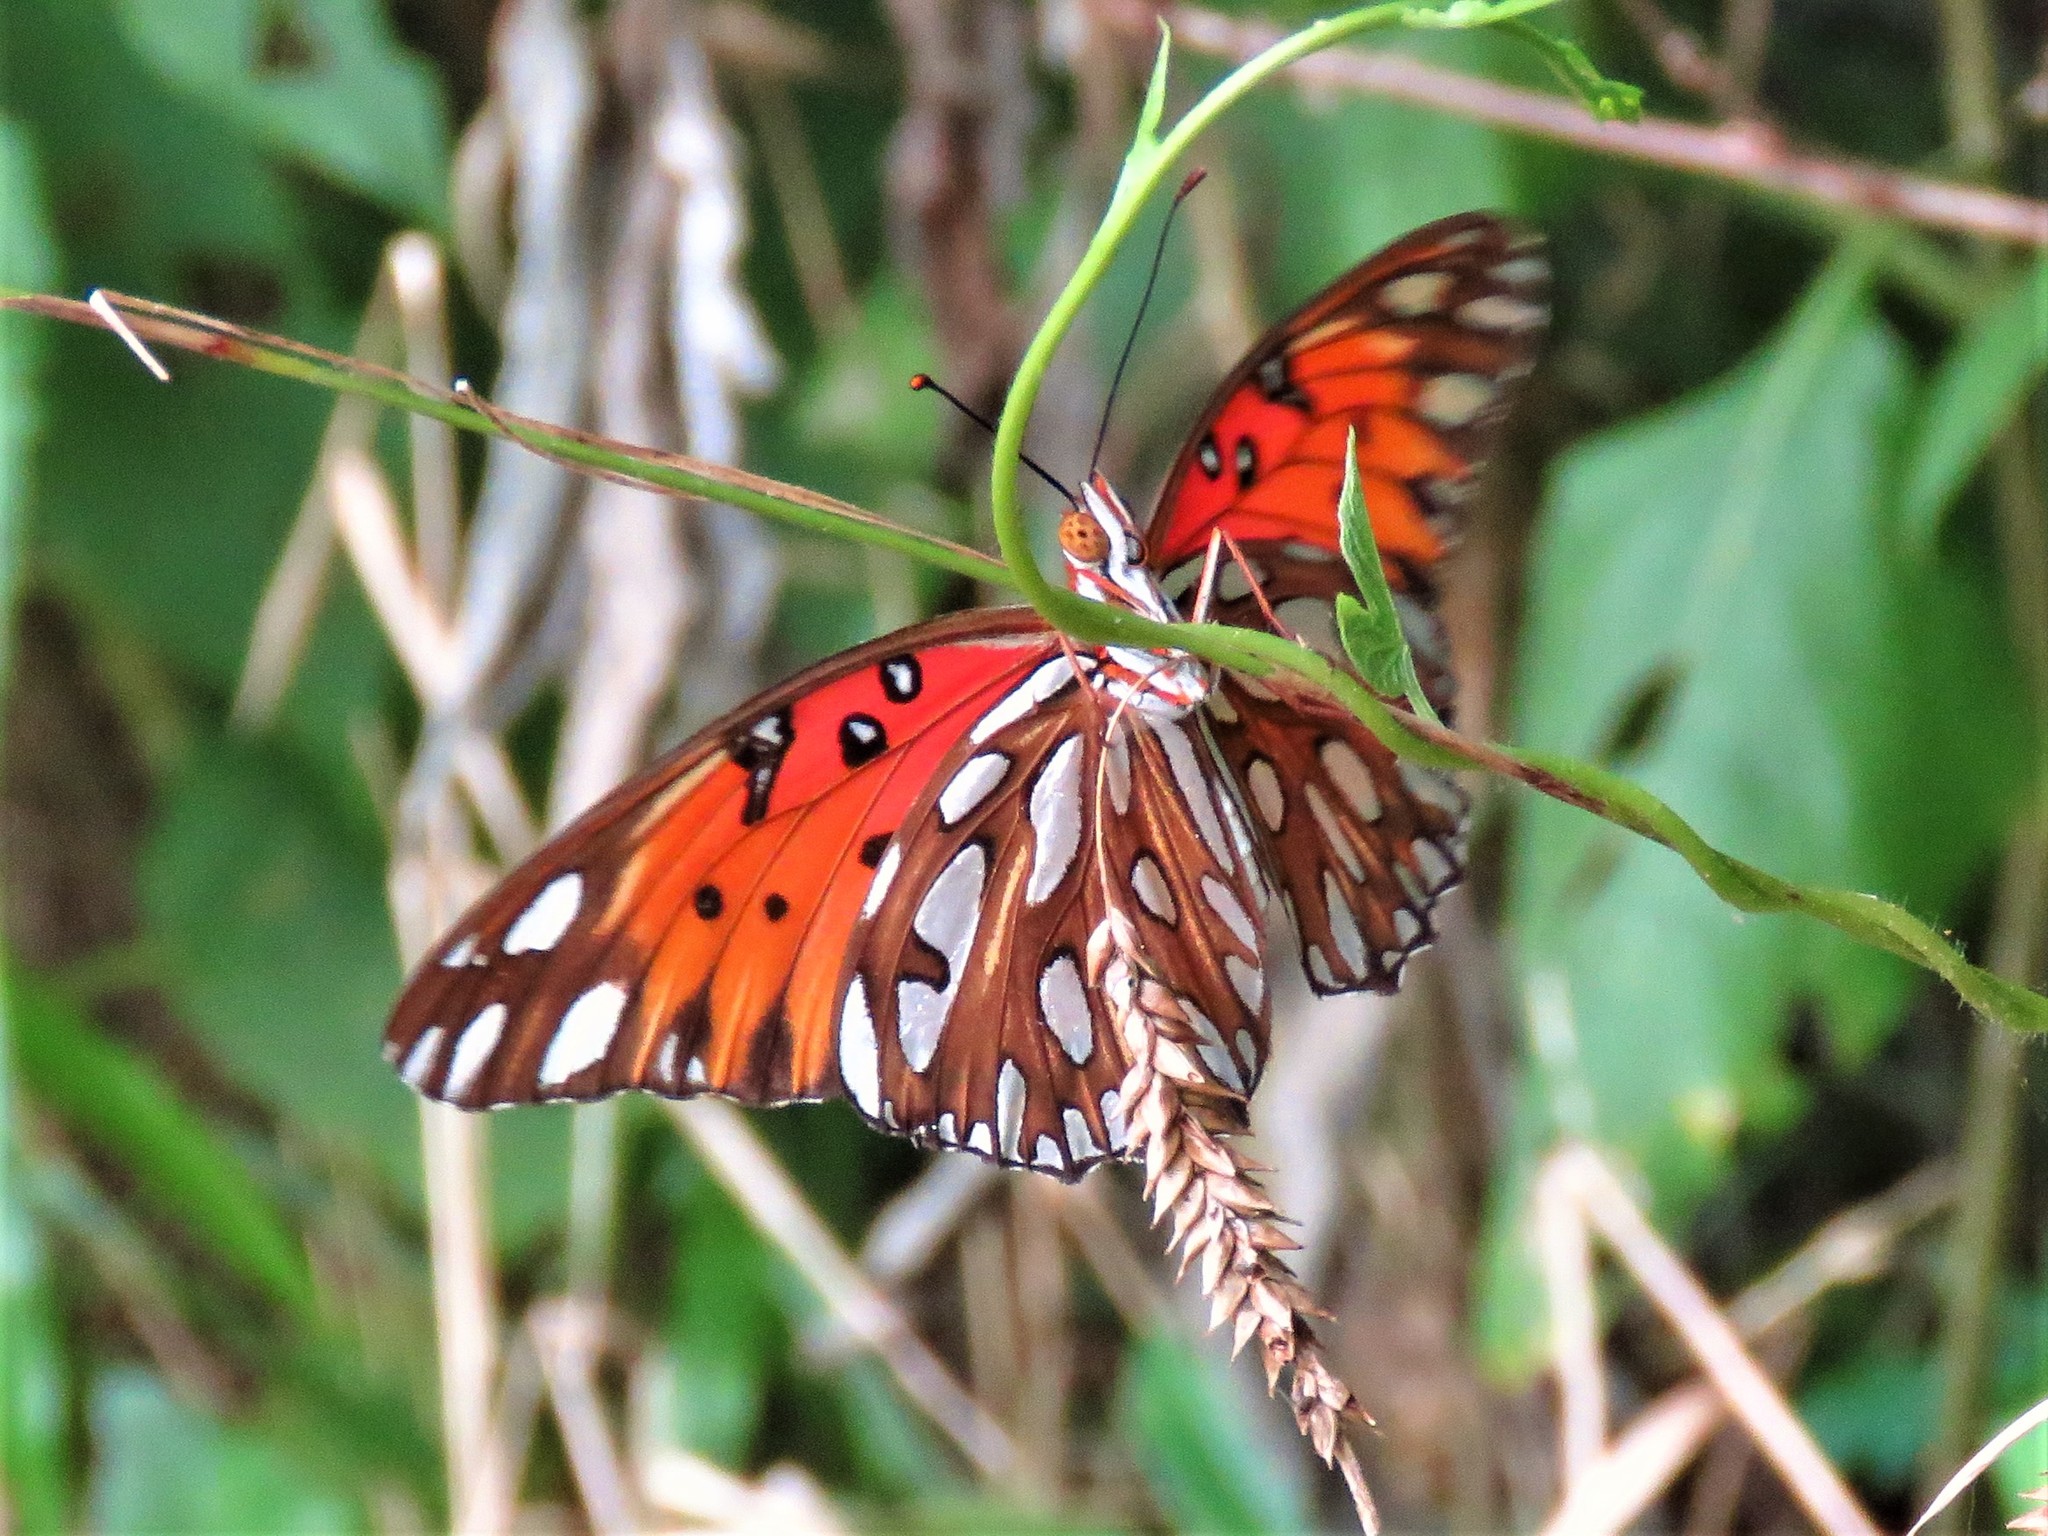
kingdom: Animalia
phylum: Arthropoda
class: Insecta
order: Lepidoptera
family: Nymphalidae
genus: Dione
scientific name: Dione vanillae
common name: Gulf fritillary
